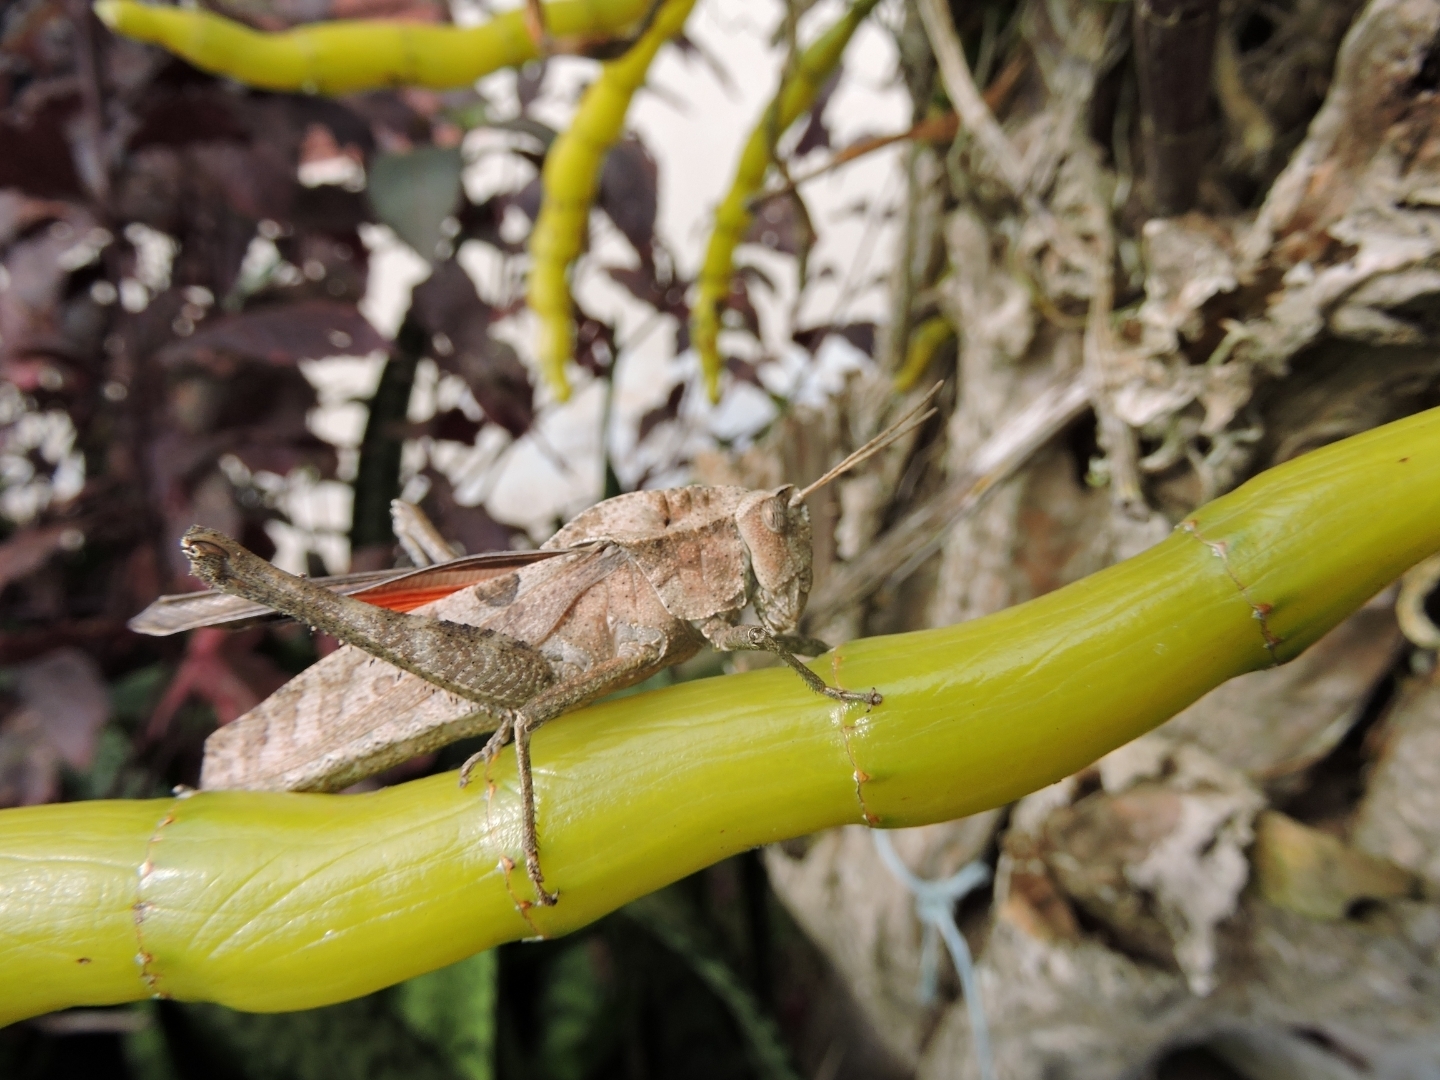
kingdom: Animalia
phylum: Arthropoda
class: Insecta
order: Orthoptera
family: Romaleidae
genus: Xyleus
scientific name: Xyleus discoideus
